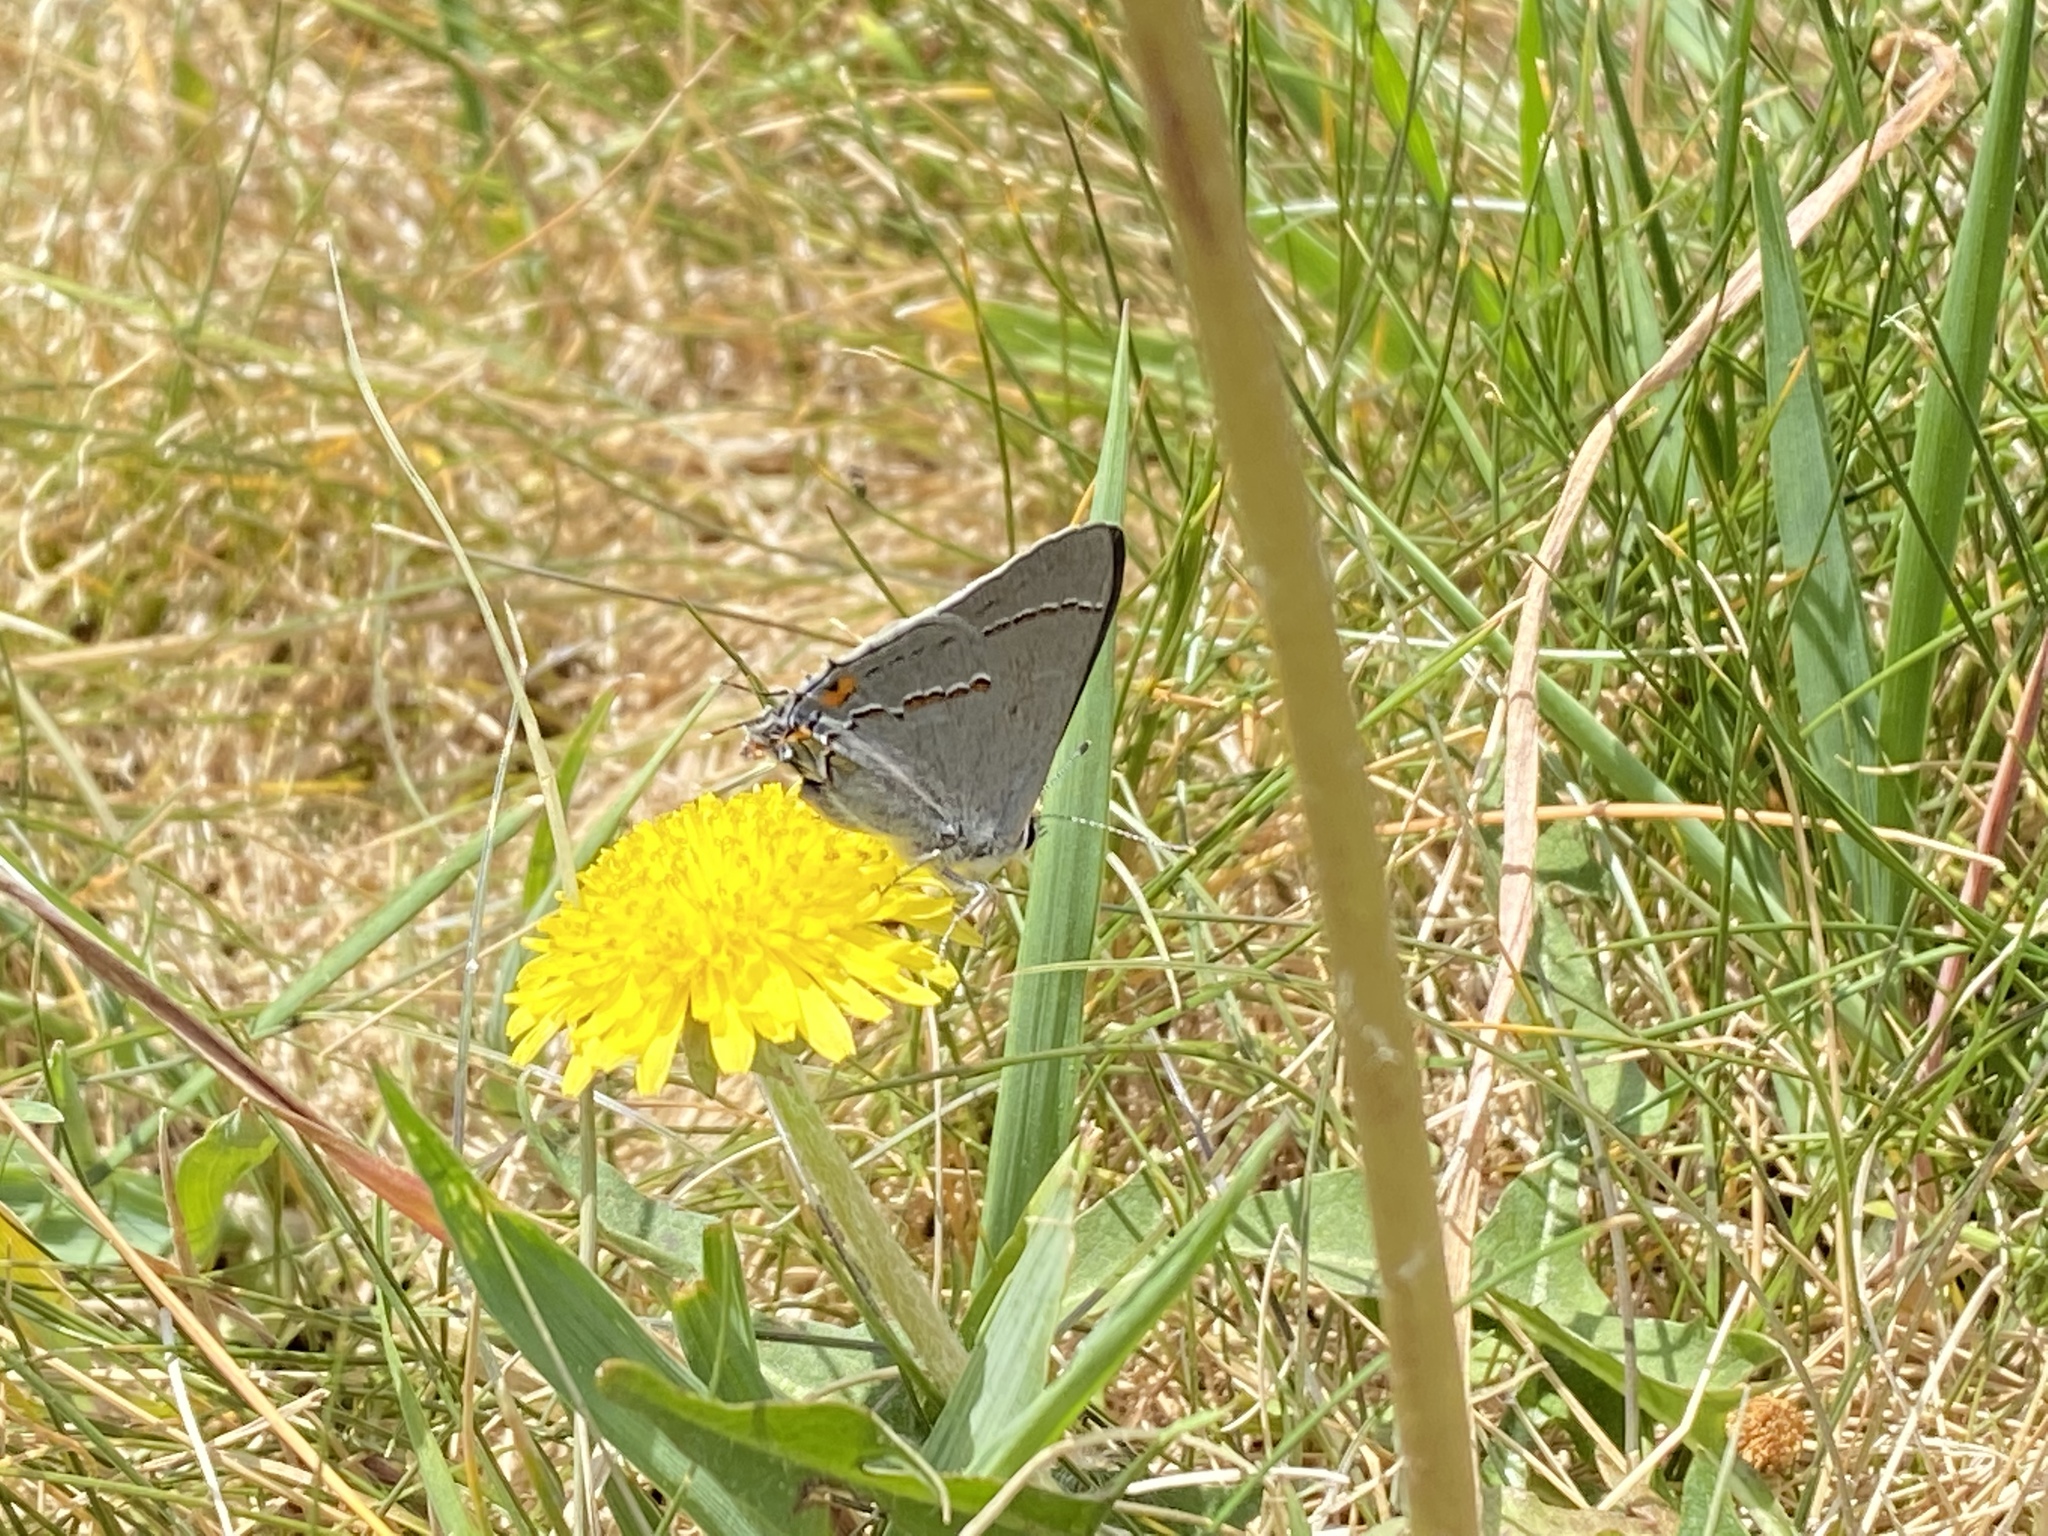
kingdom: Animalia
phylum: Arthropoda
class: Insecta
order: Lepidoptera
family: Lycaenidae
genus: Strymon
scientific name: Strymon melinus
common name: Gray hairstreak
